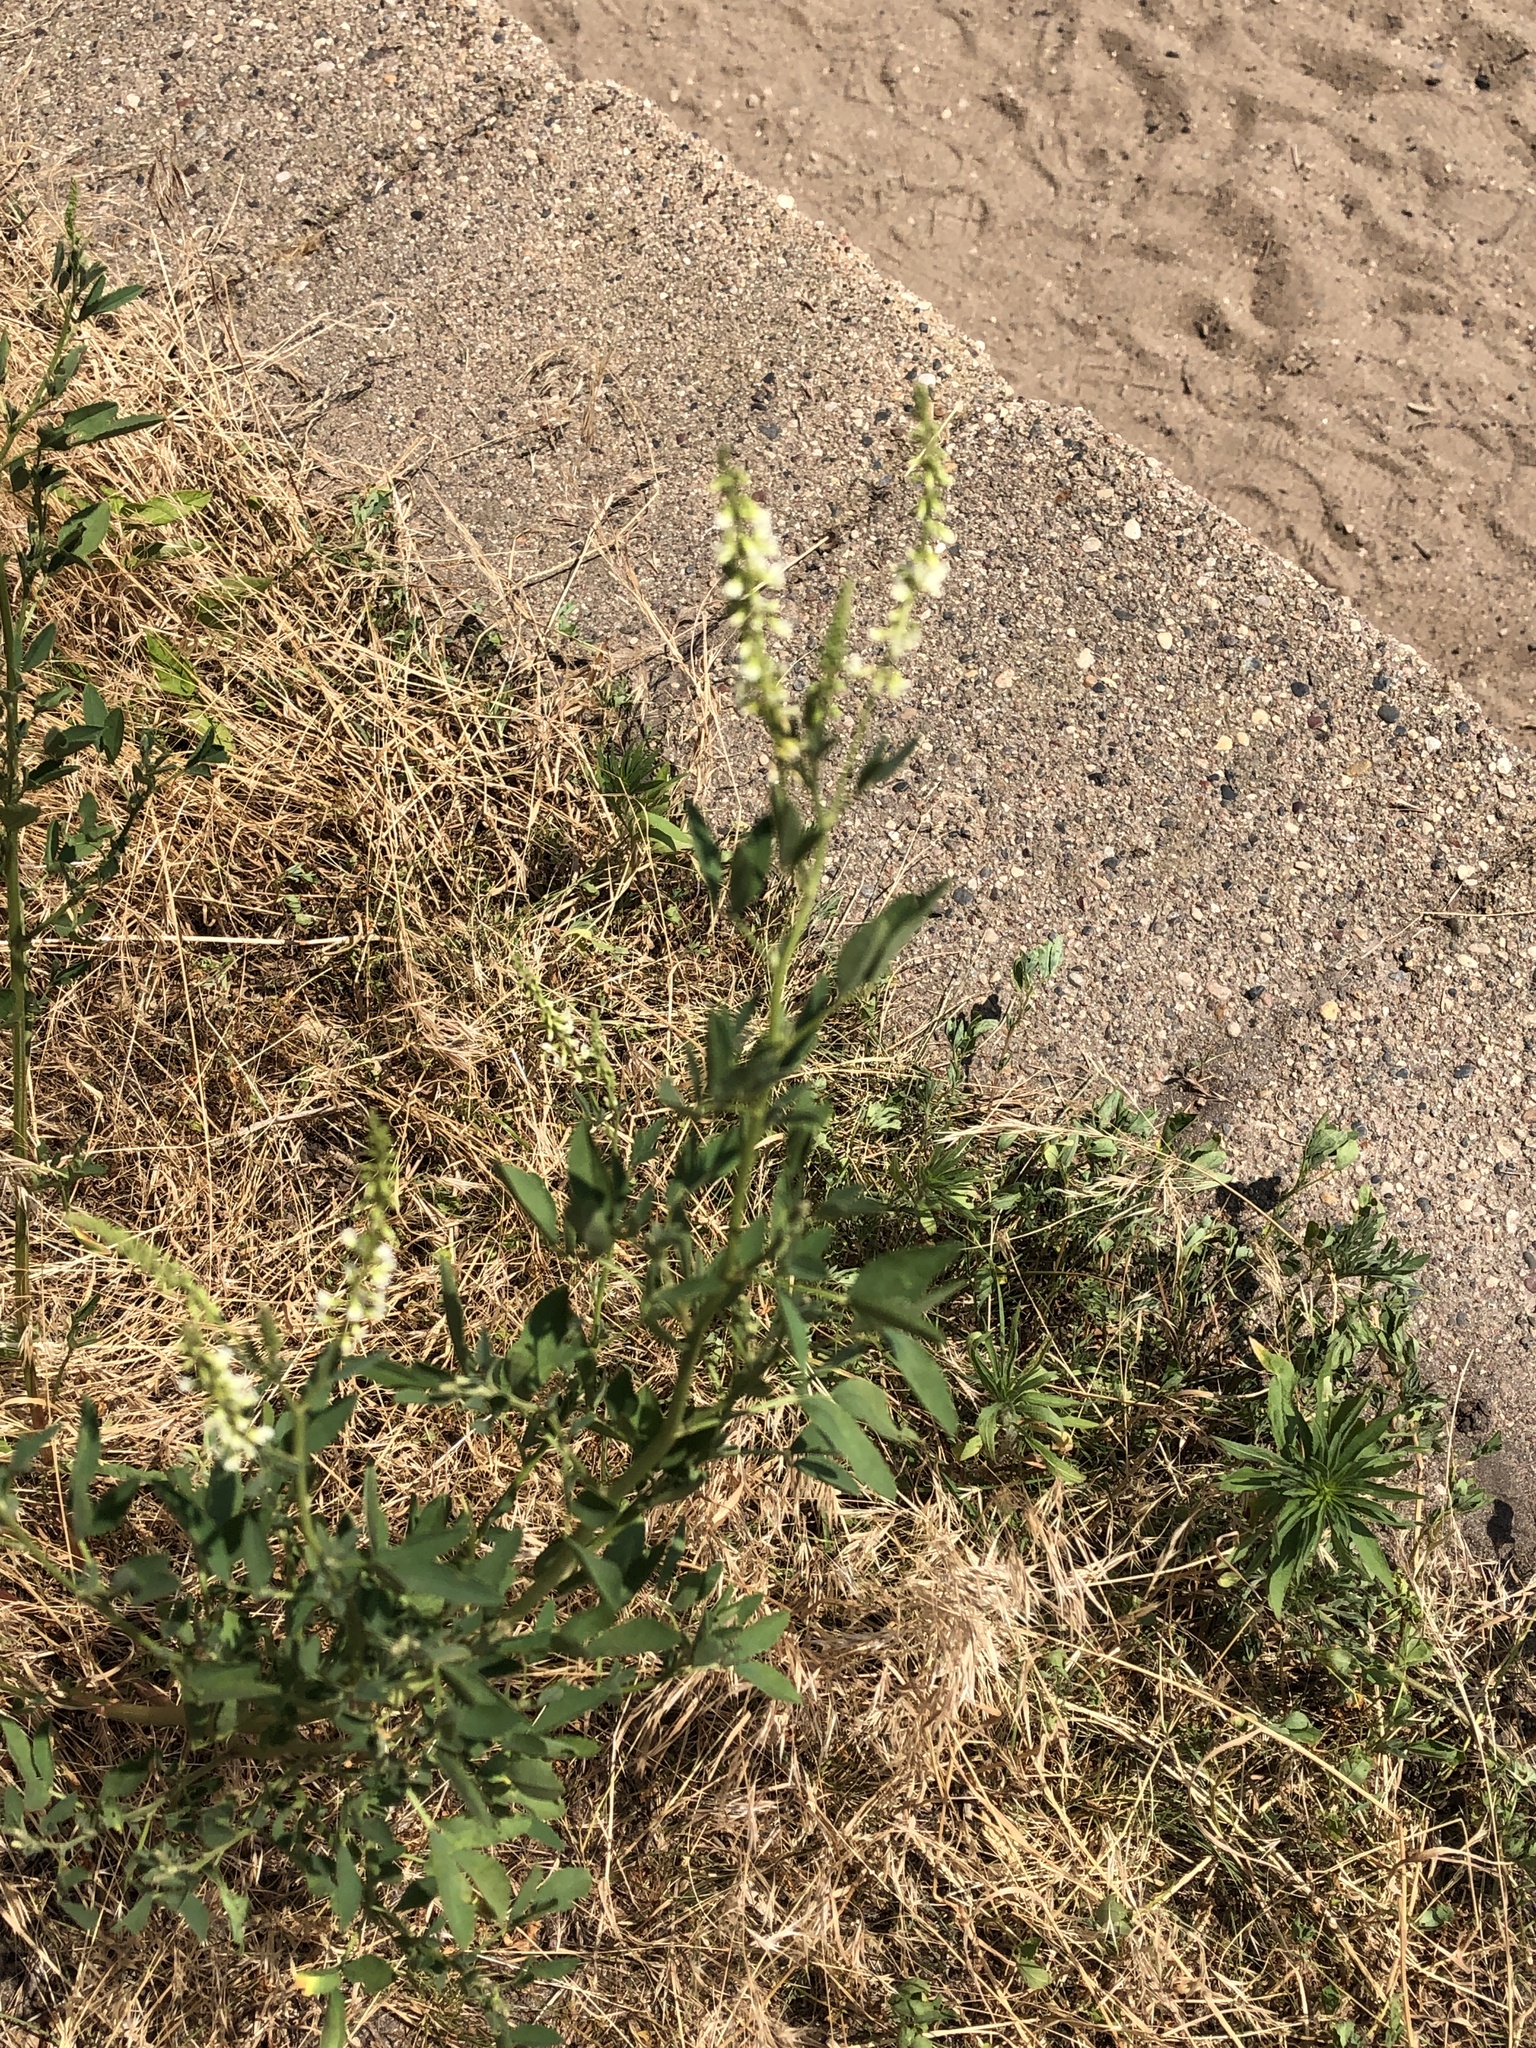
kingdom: Plantae
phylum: Tracheophyta
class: Magnoliopsida
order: Fabales
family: Fabaceae
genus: Melilotus
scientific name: Melilotus albus
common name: White melilot
